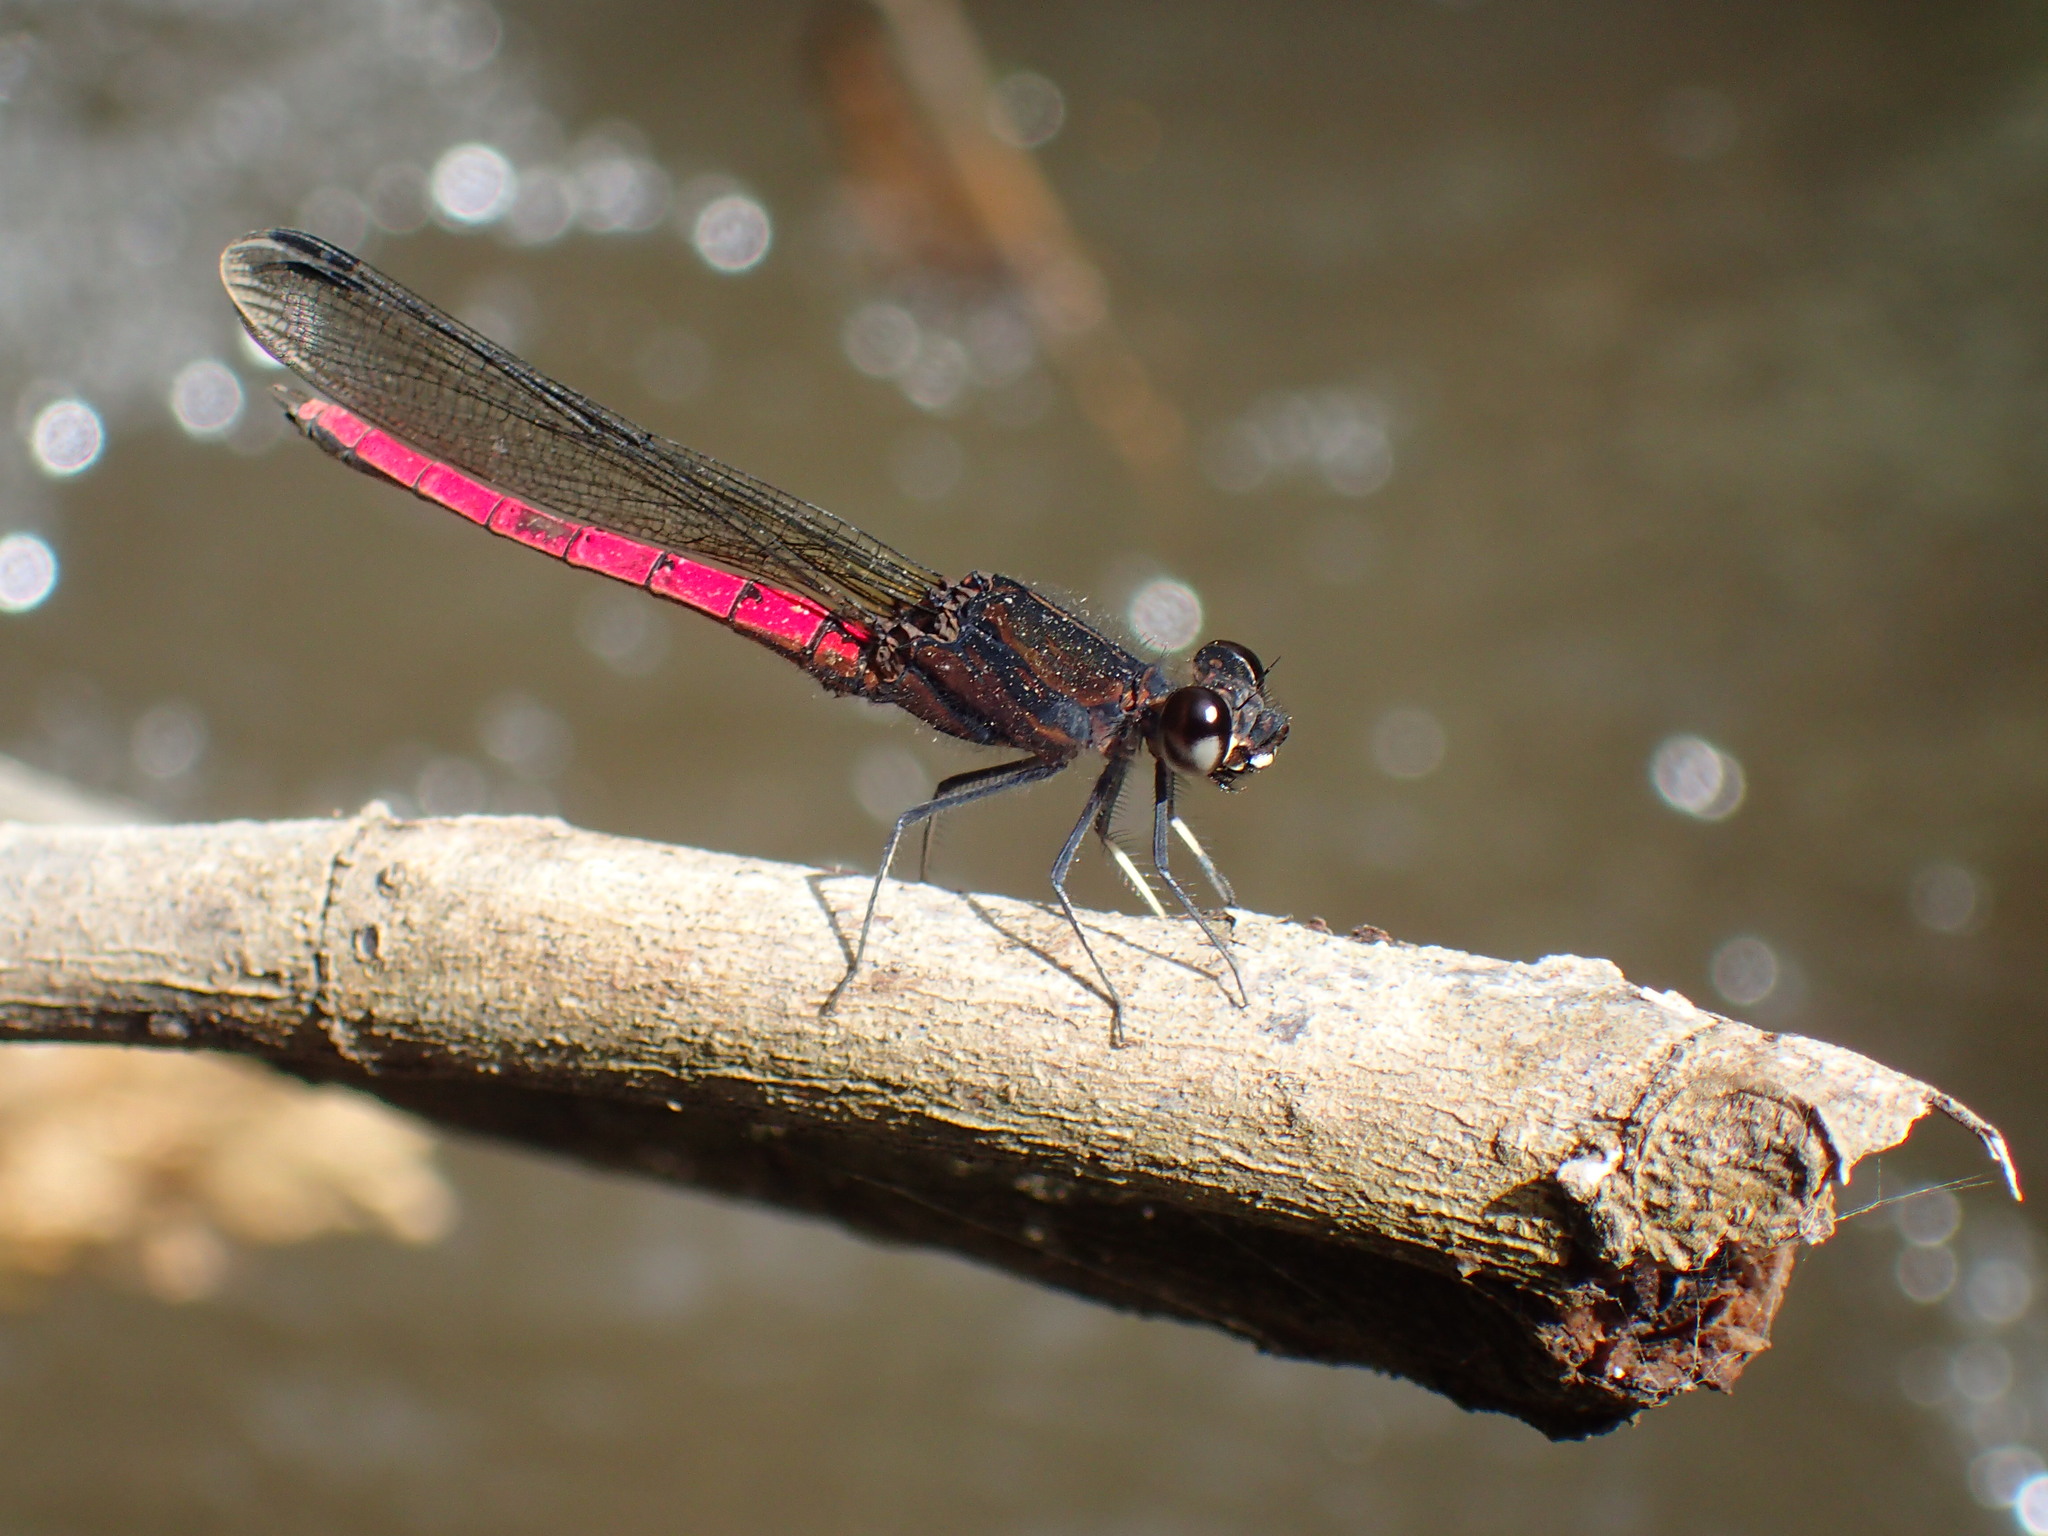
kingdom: Animalia
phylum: Arthropoda
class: Insecta
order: Odonata
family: Chlorocyphidae
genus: Chlorocypha
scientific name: Chlorocypha consueta
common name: Ruby jewel
